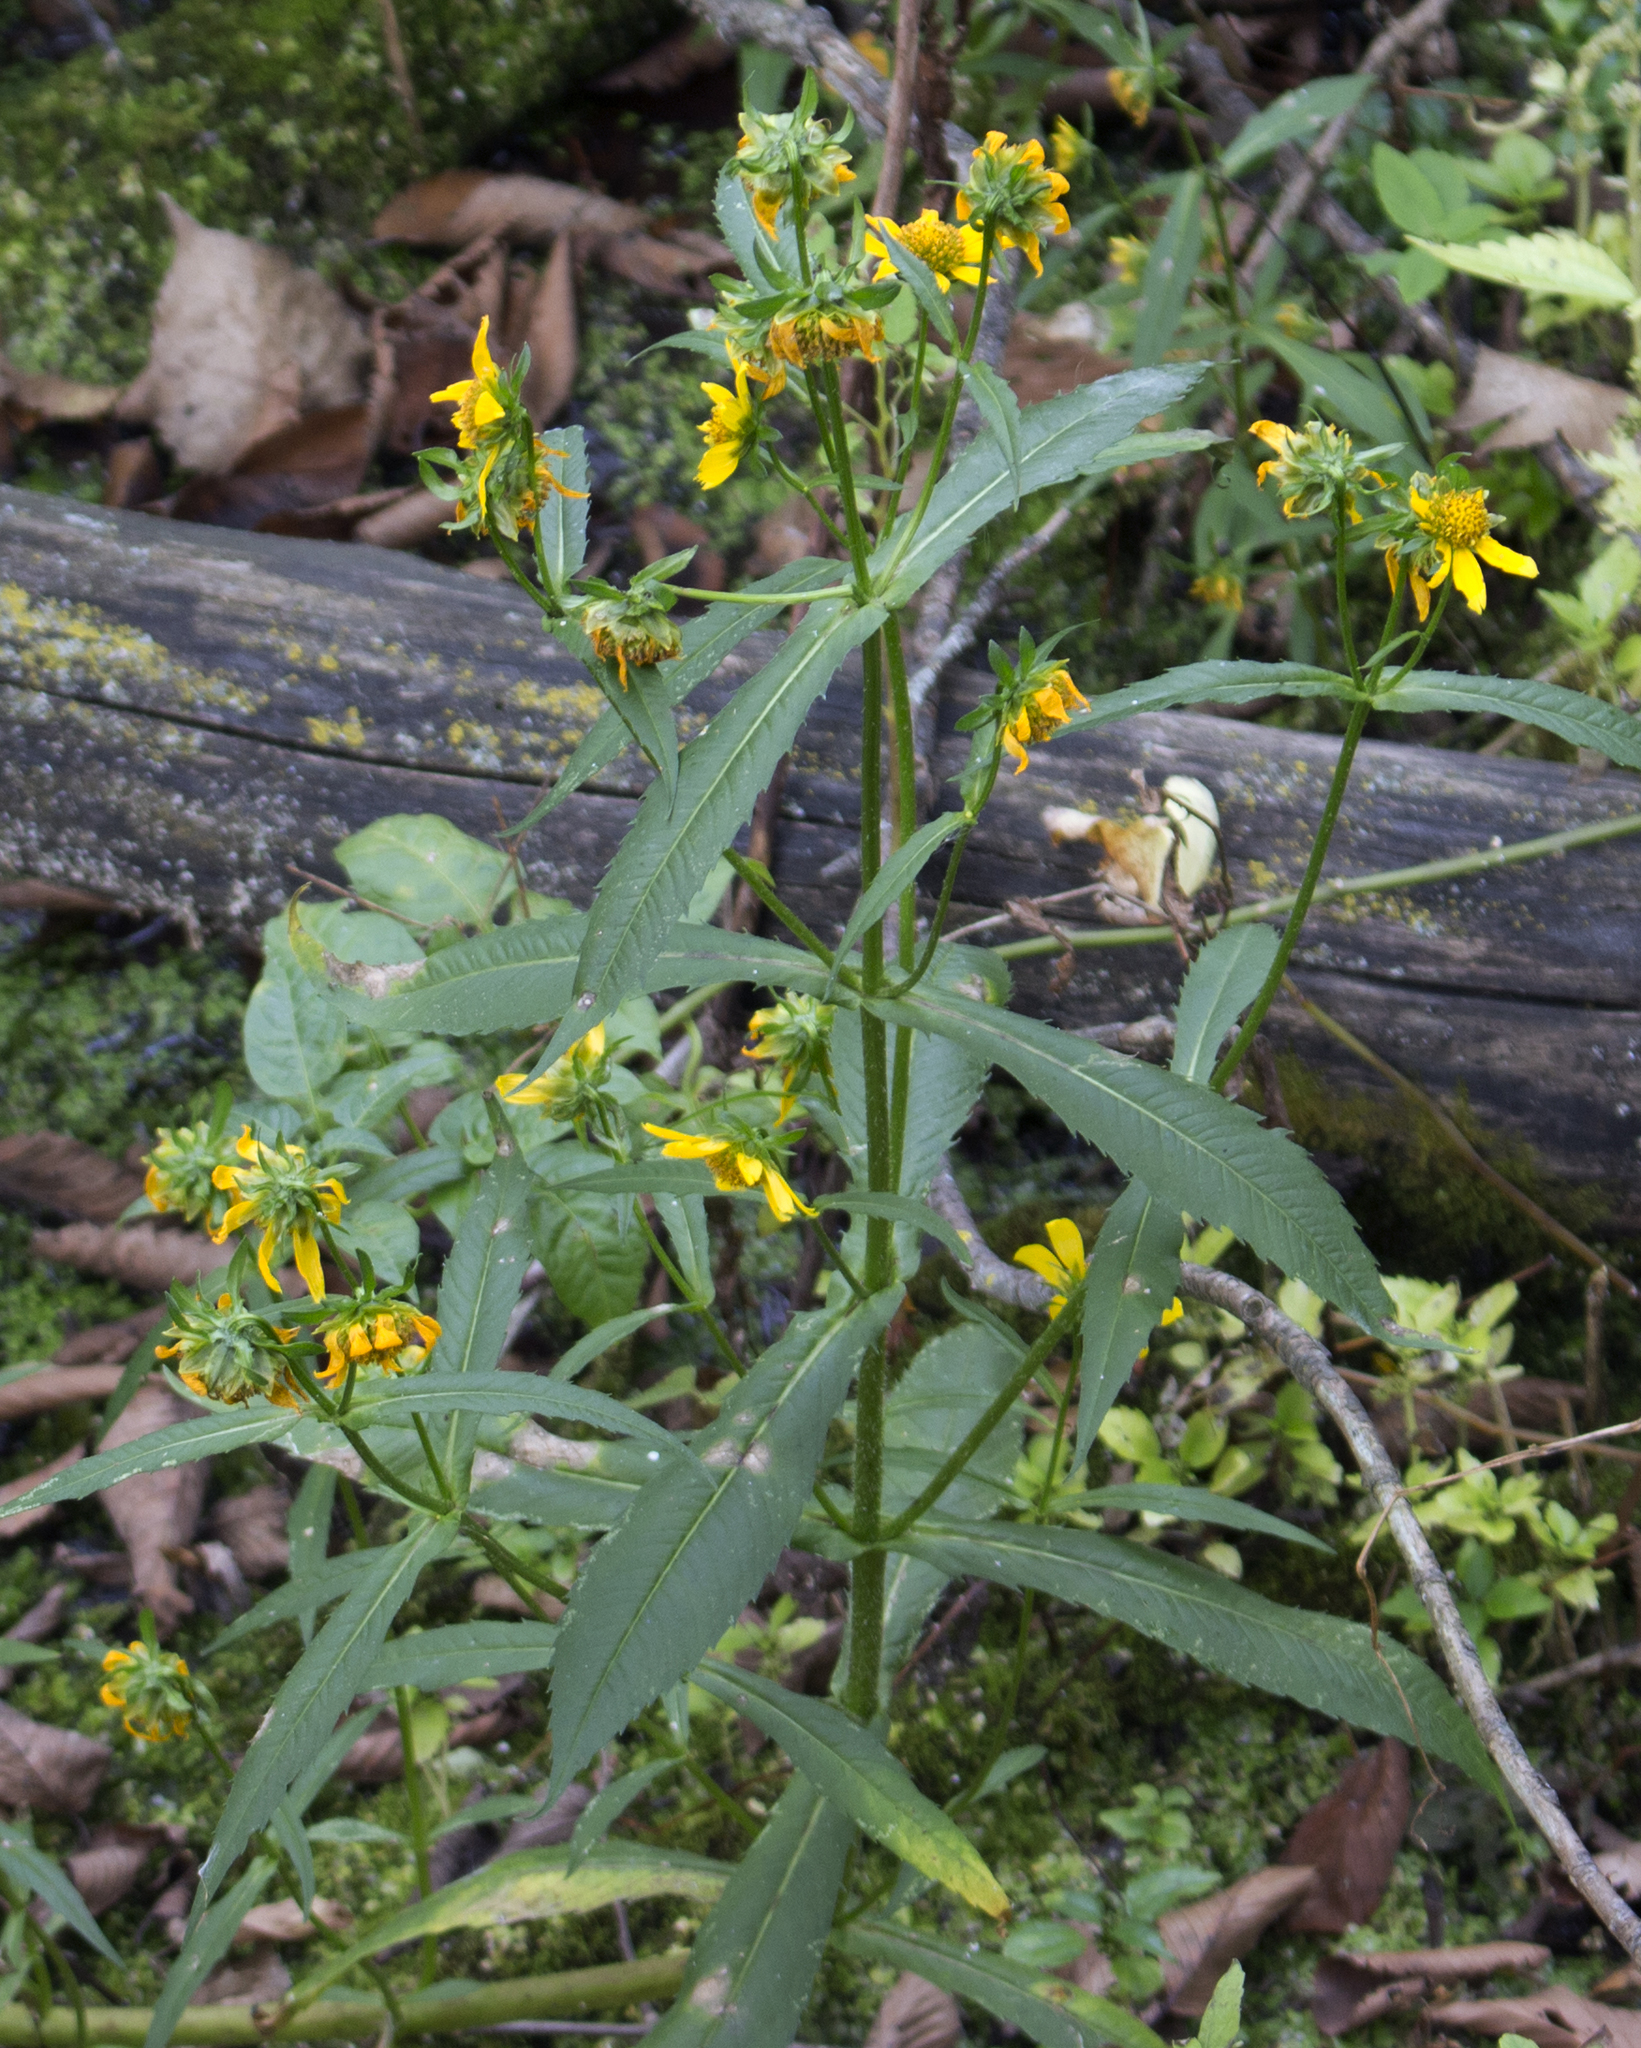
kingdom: Plantae
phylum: Tracheophyta
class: Magnoliopsida
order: Asterales
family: Asteraceae
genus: Bidens
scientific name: Bidens cernua
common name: Nodding bur-marigold
